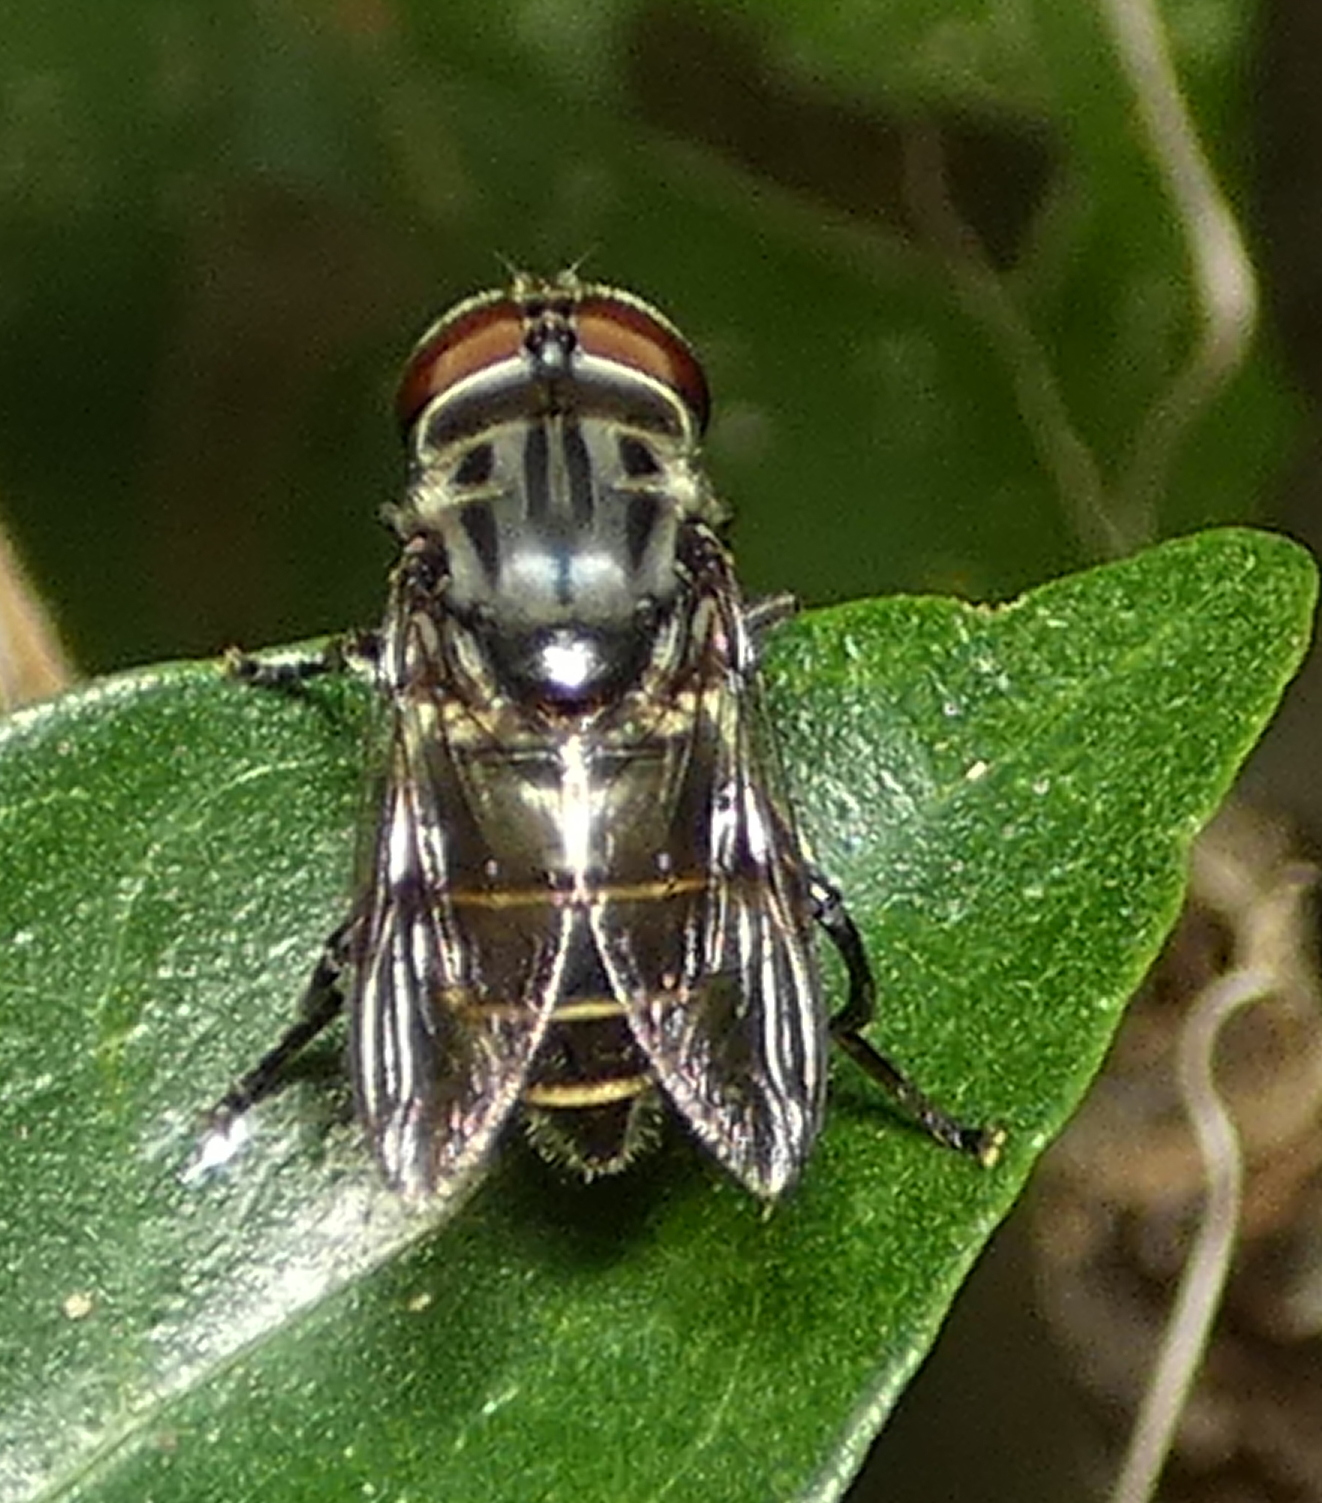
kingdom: Animalia
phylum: Arthropoda
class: Insecta
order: Diptera
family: Syrphidae
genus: Palpada
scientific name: Palpada furcata
